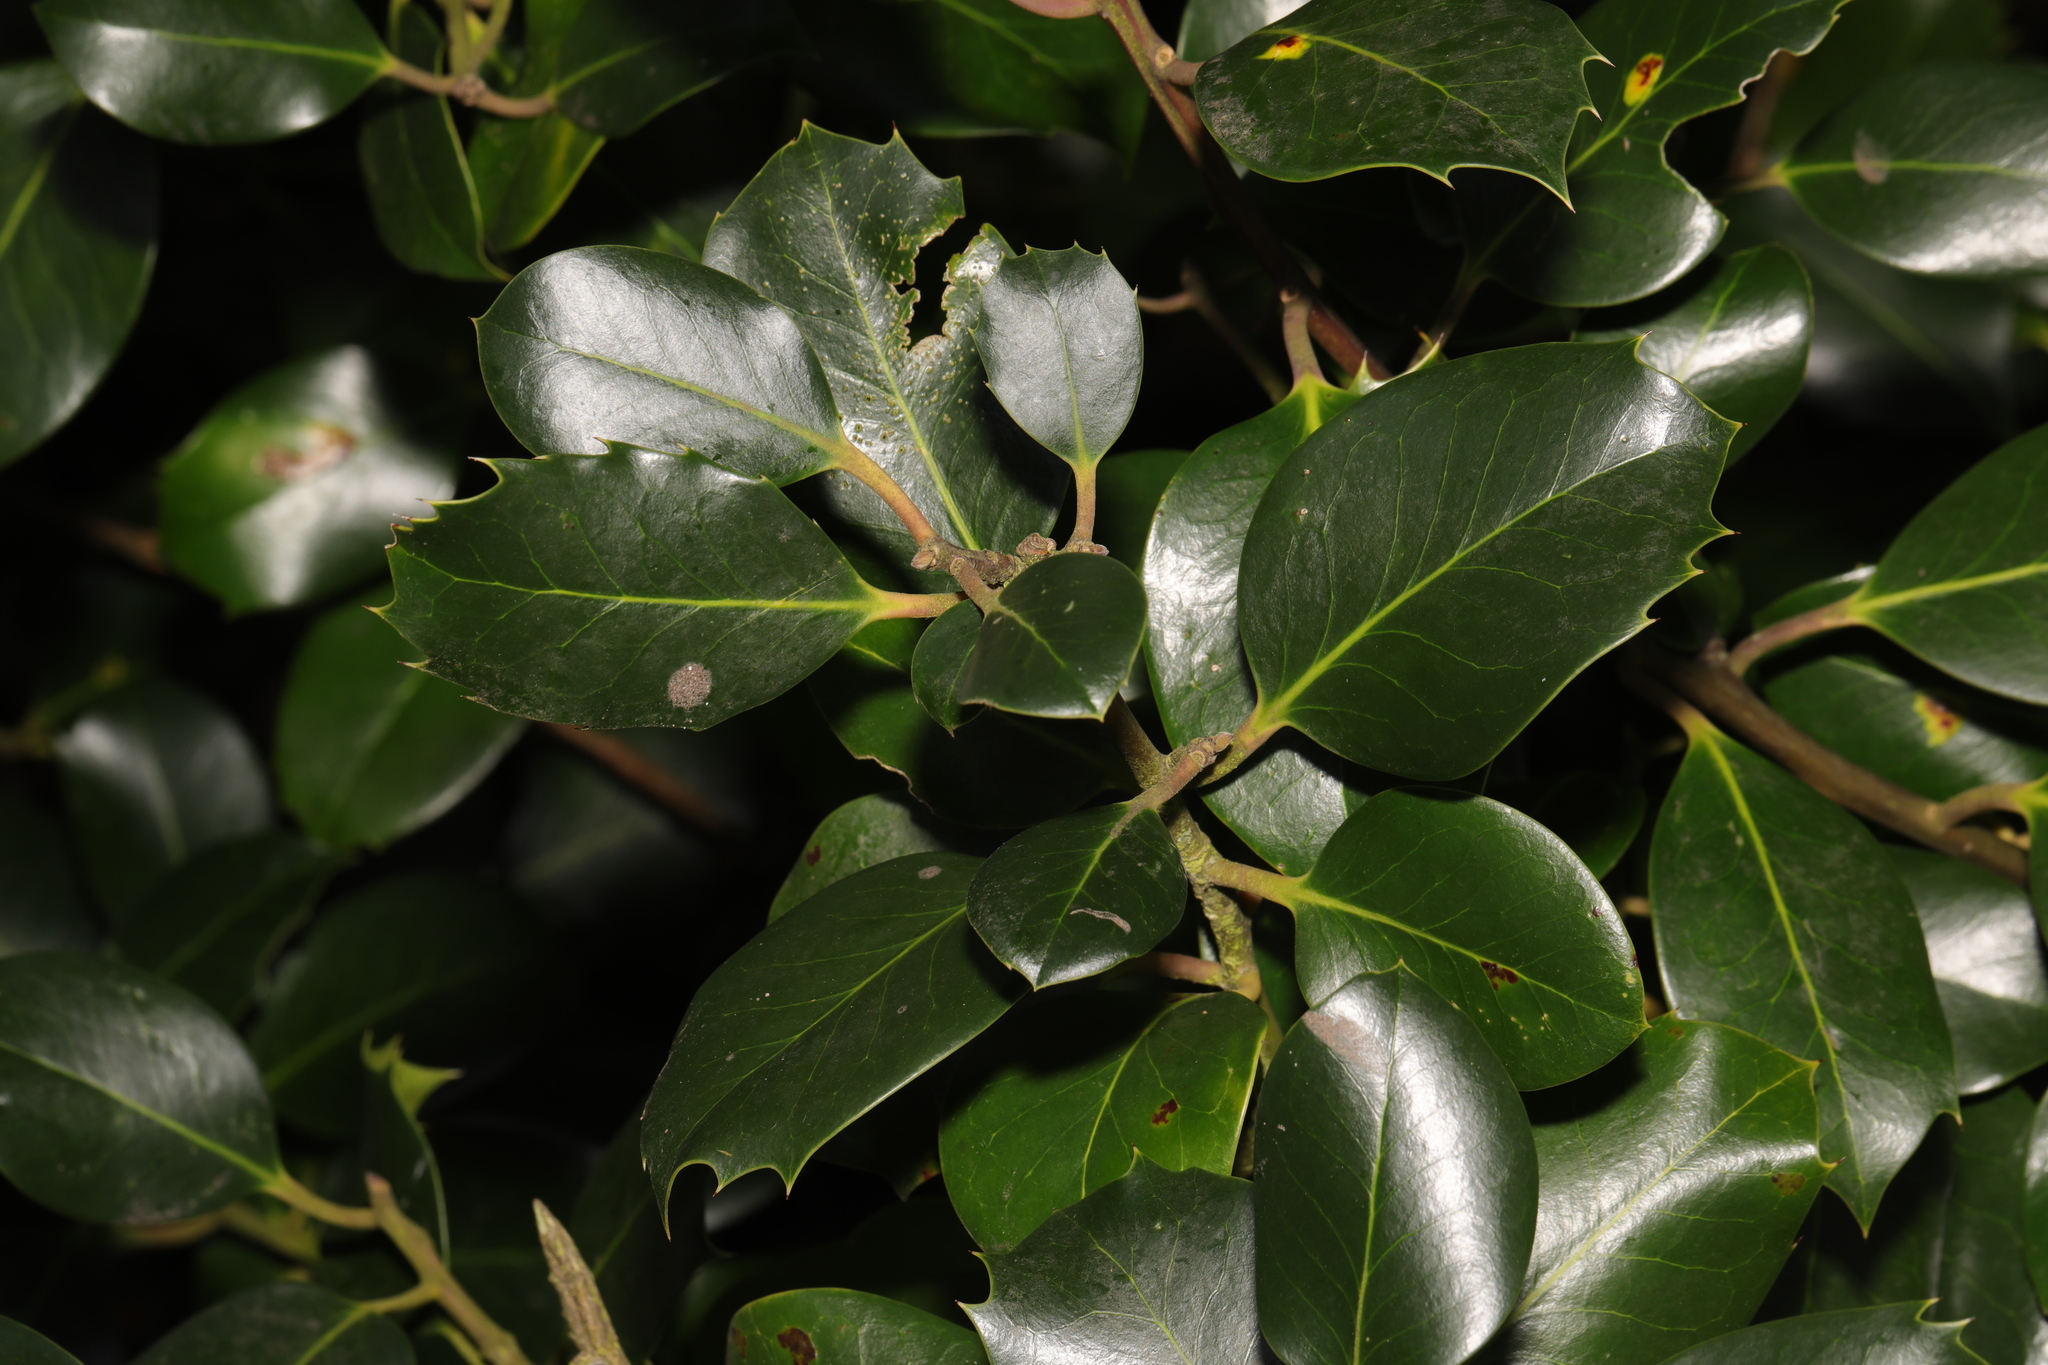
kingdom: Plantae
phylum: Tracheophyta
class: Magnoliopsida
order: Aquifoliales
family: Aquifoliaceae
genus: Ilex
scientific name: Ilex aquifolium
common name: English holly
